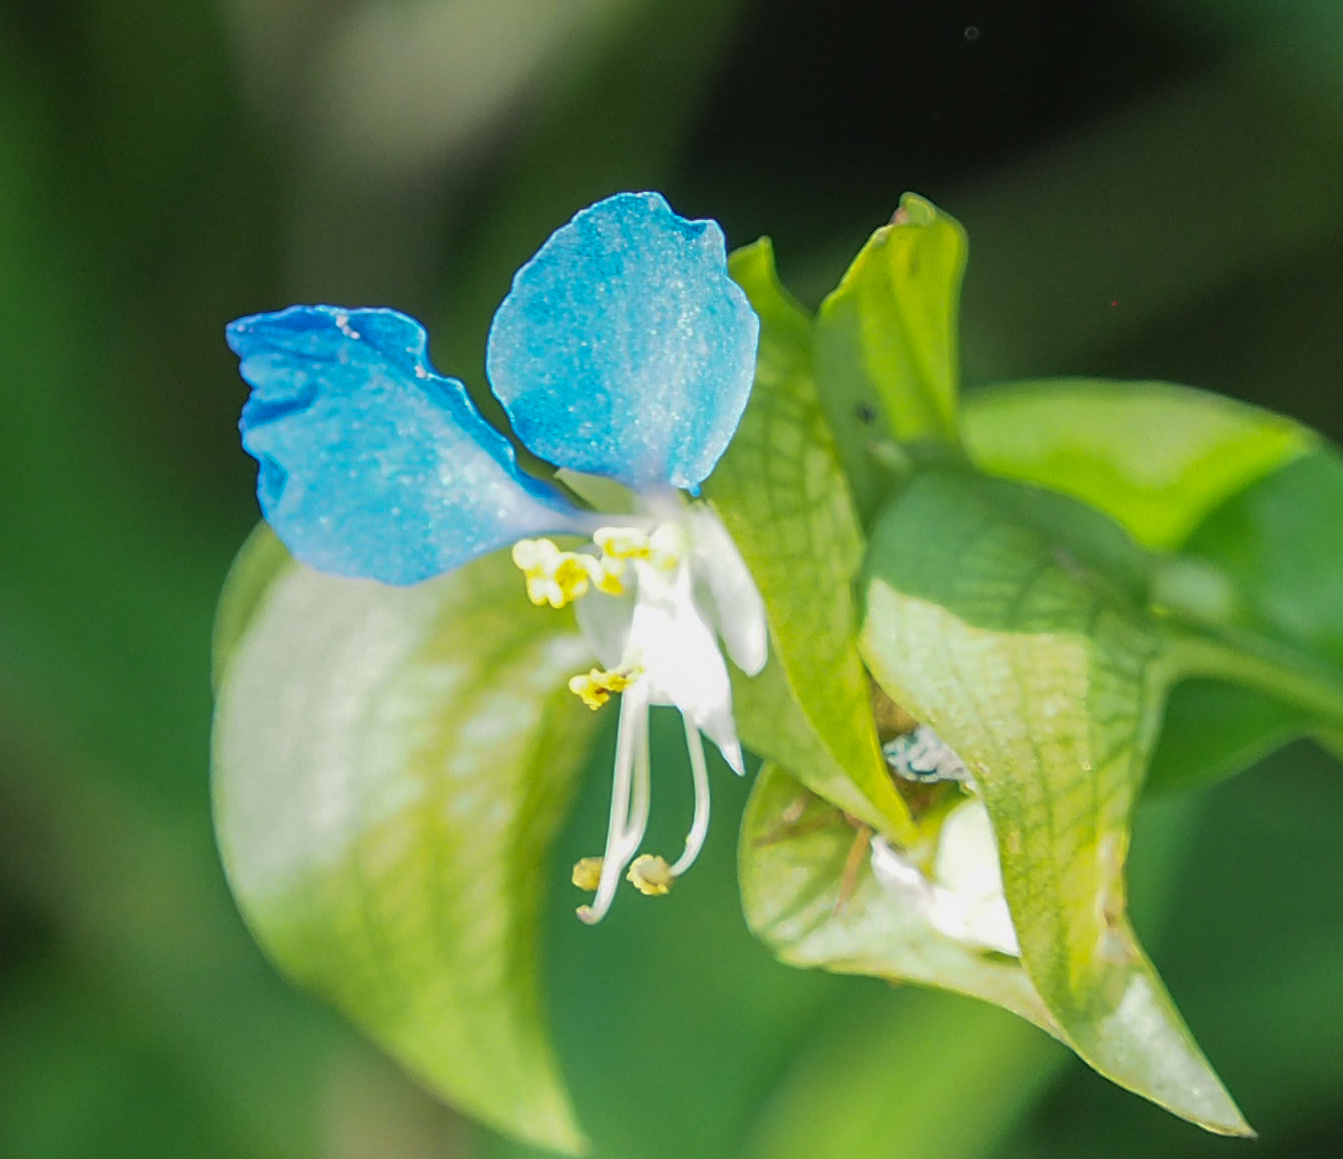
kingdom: Plantae
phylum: Tracheophyta
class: Liliopsida
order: Commelinales
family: Commelinaceae
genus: Commelina
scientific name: Commelina communis
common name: Asiatic dayflower
